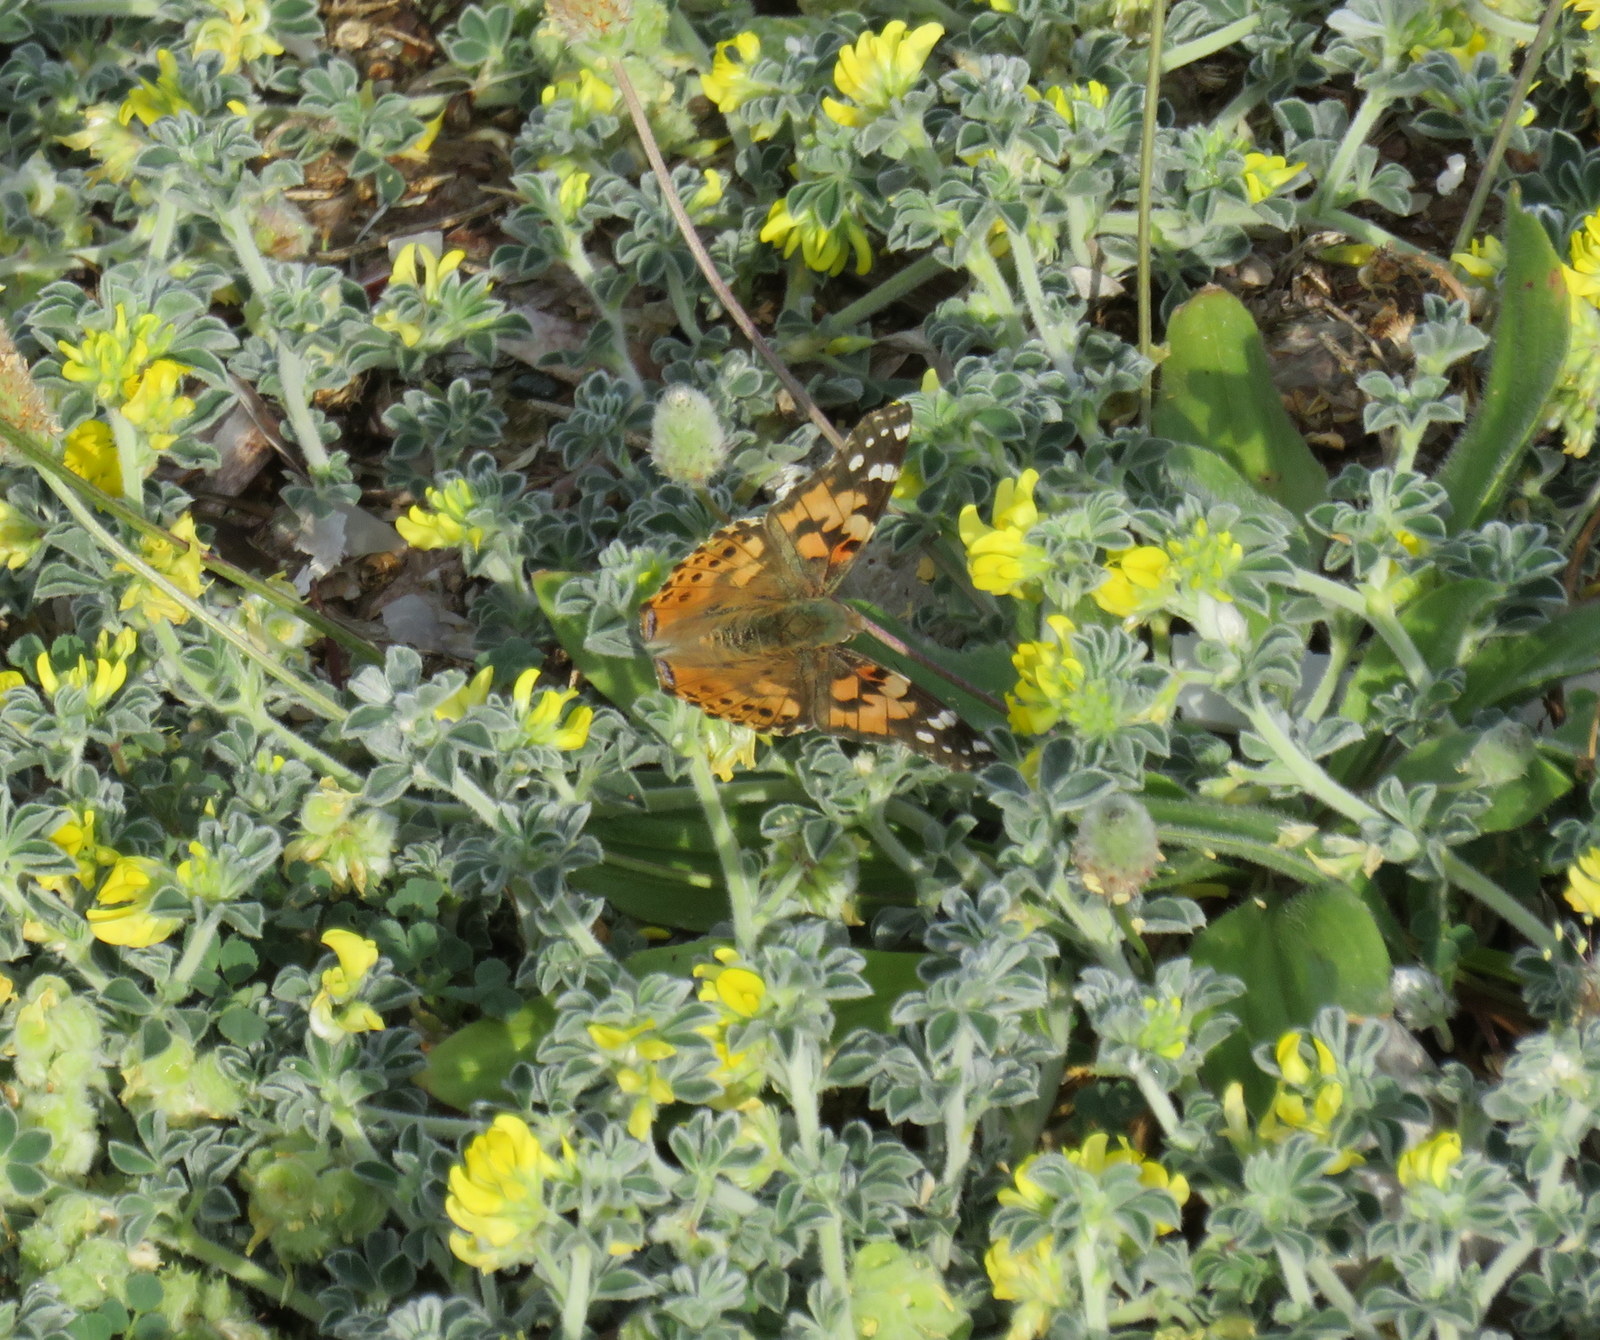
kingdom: Animalia
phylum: Arthropoda
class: Insecta
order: Lepidoptera
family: Nymphalidae
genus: Vanessa
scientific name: Vanessa cardui
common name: Painted lady
